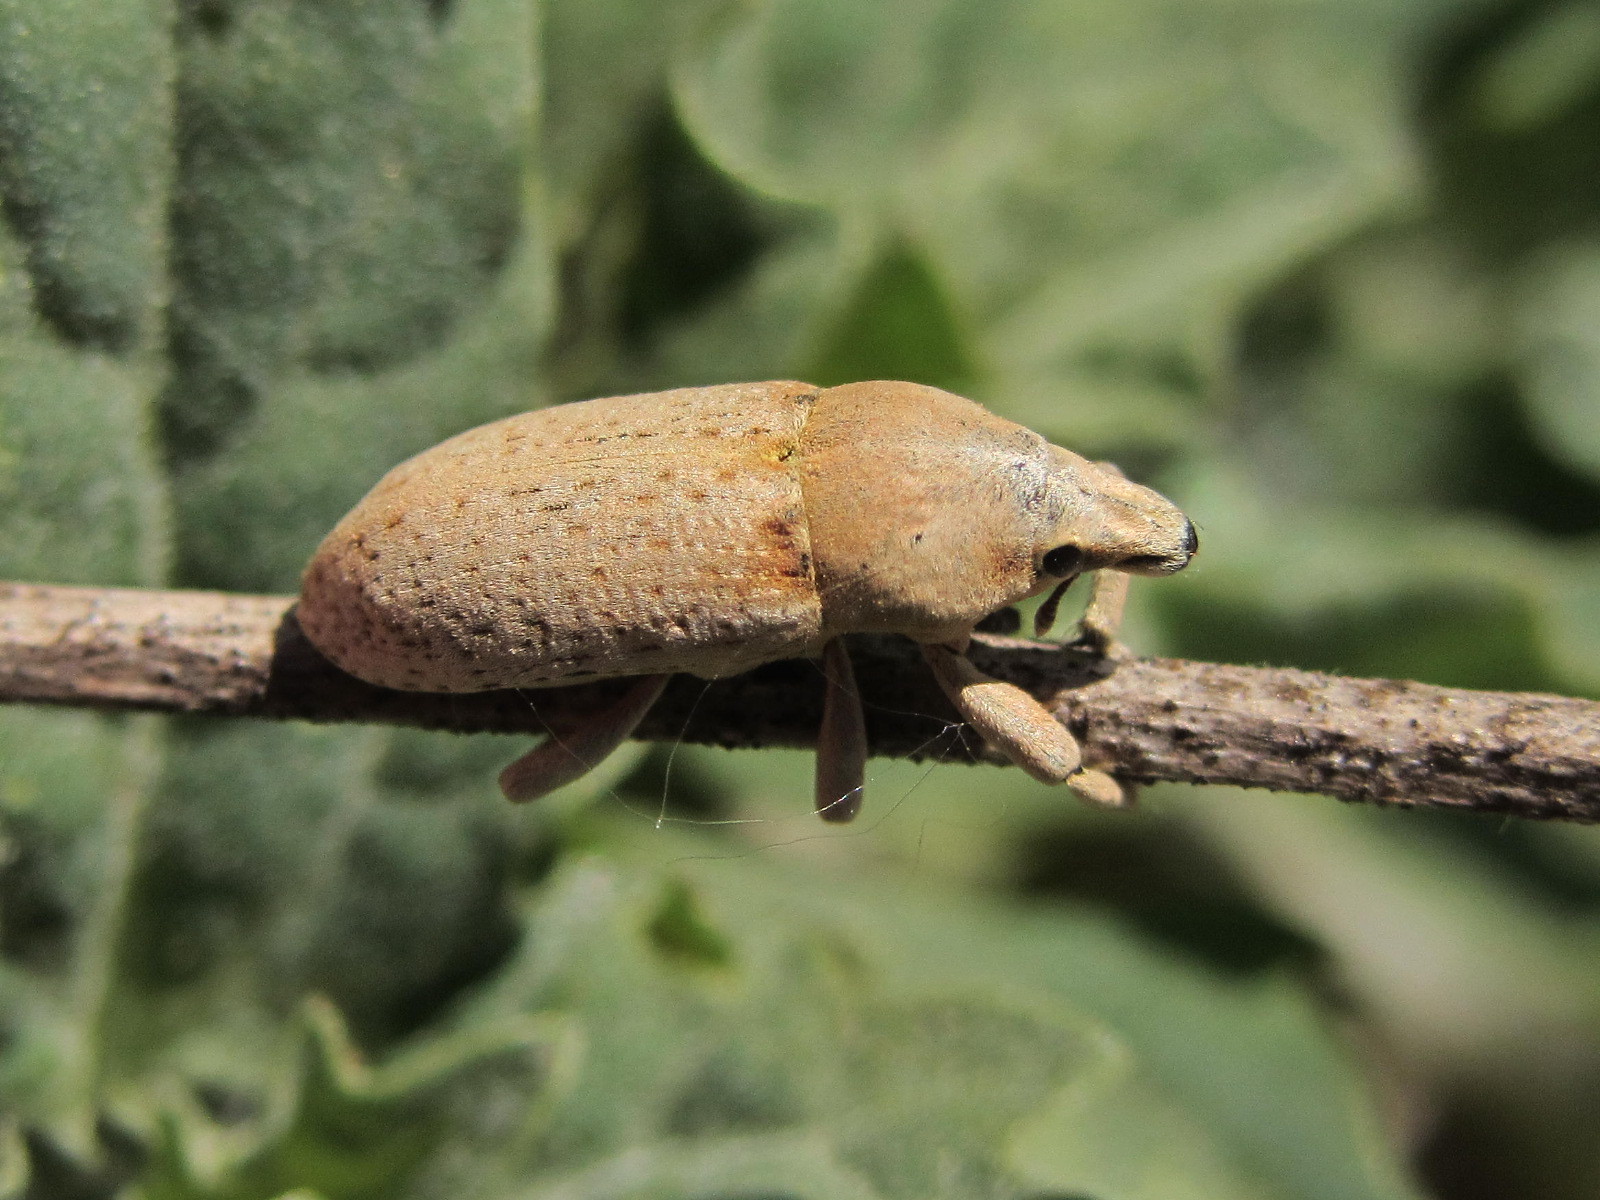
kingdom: Animalia
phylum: Arthropoda
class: Insecta
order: Coleoptera
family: Curculionidae
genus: Temnorhinus
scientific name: Temnorhinus hololeucus
